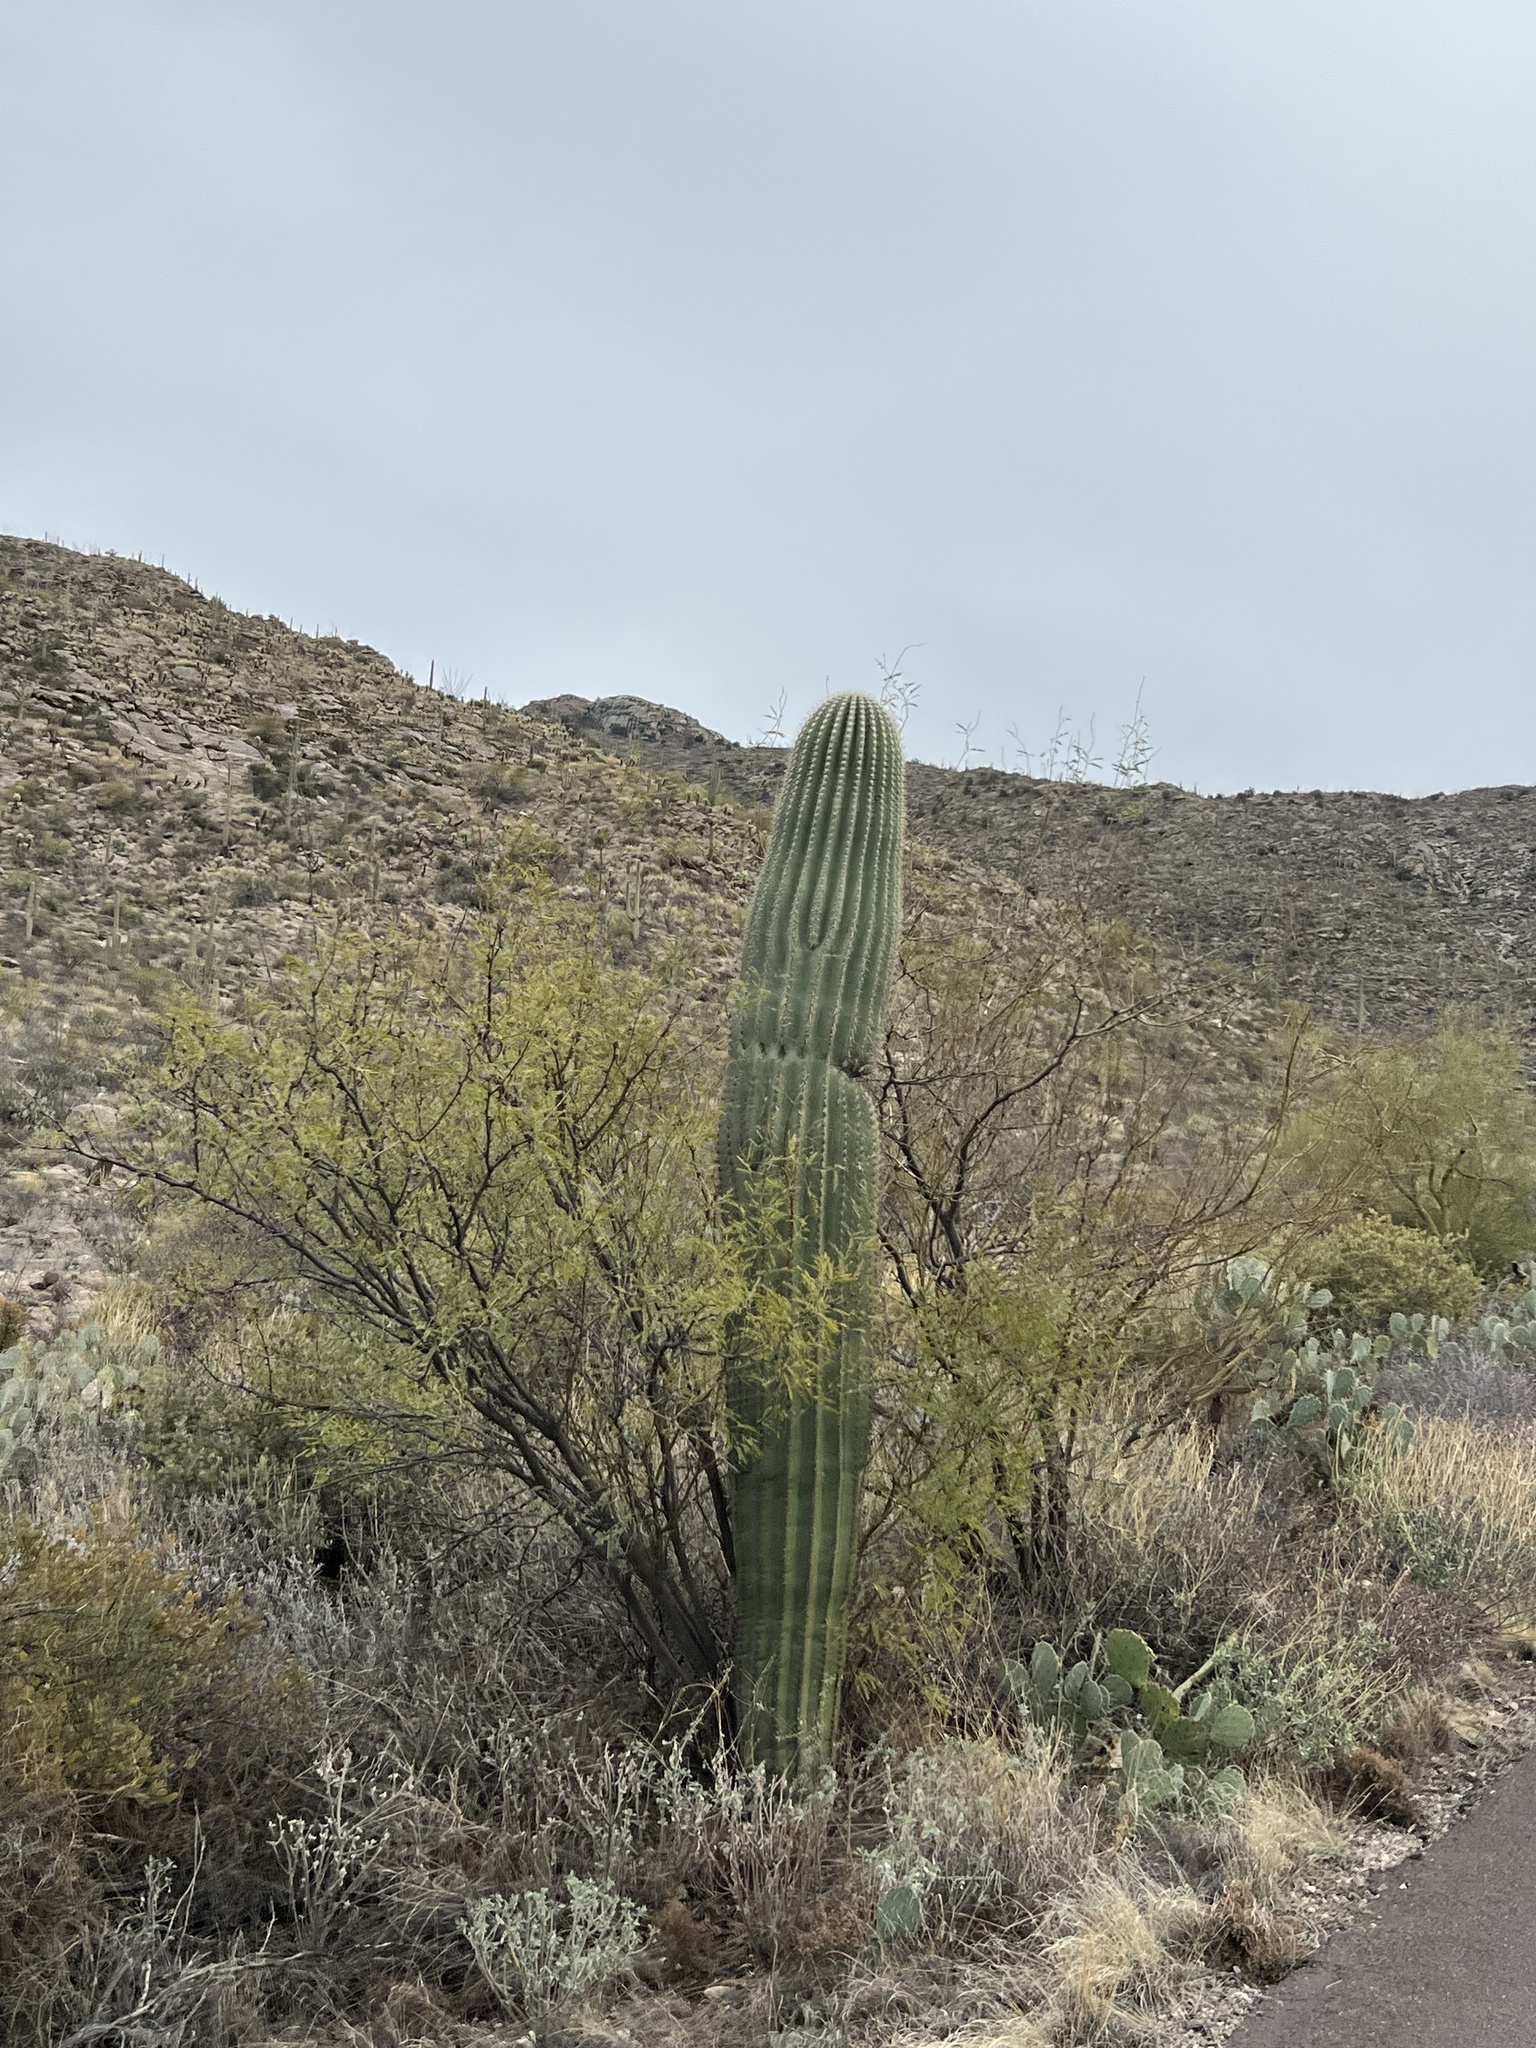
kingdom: Plantae
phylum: Tracheophyta
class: Magnoliopsida
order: Caryophyllales
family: Cactaceae
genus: Carnegiea
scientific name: Carnegiea gigantea
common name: Saguaro
